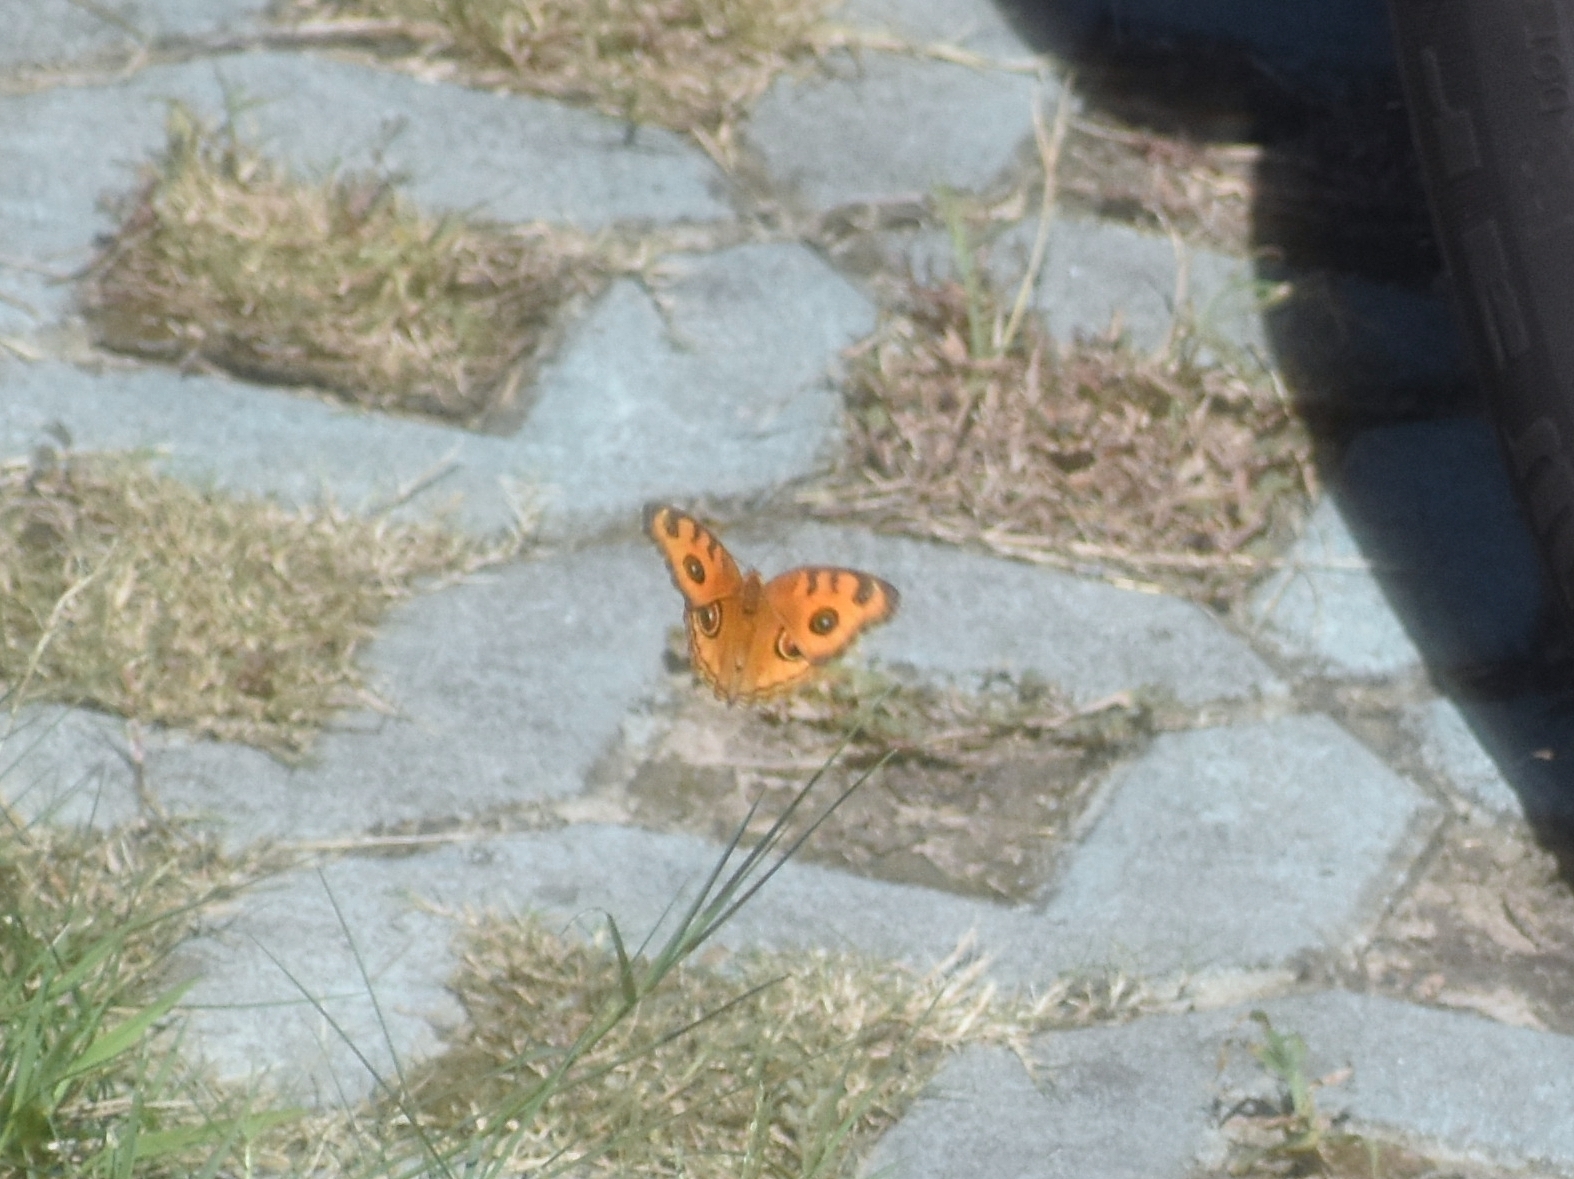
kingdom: Animalia
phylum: Arthropoda
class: Insecta
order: Lepidoptera
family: Nymphalidae
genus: Junonia
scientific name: Junonia almana
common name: Peacock pansy
